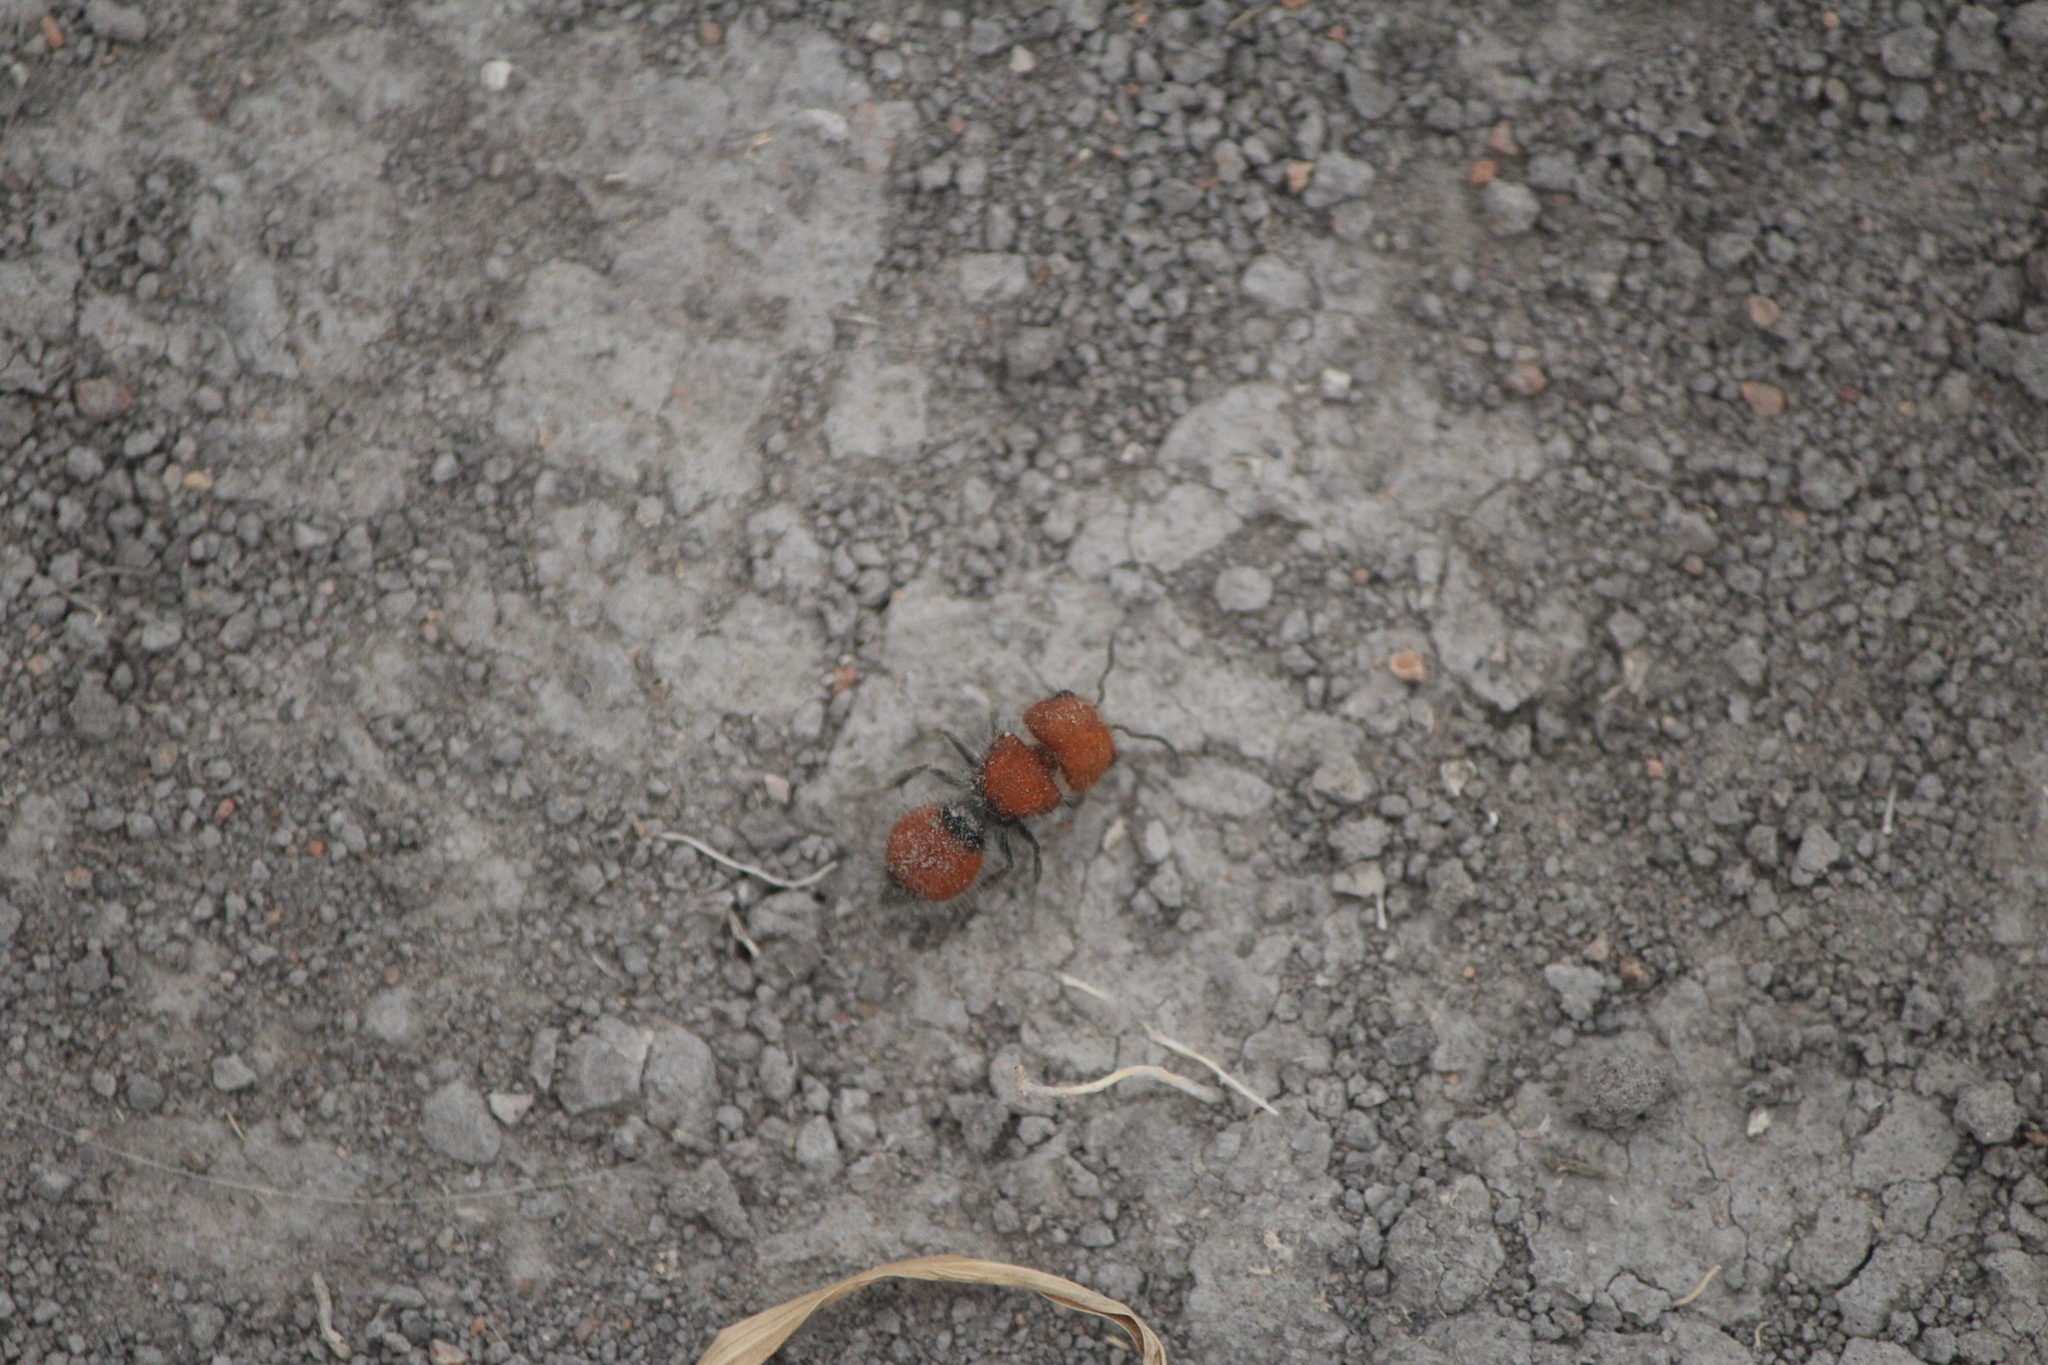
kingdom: Animalia
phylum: Arthropoda
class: Insecta
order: Hymenoptera
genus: Invreiella
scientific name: Invreiella satrapa
